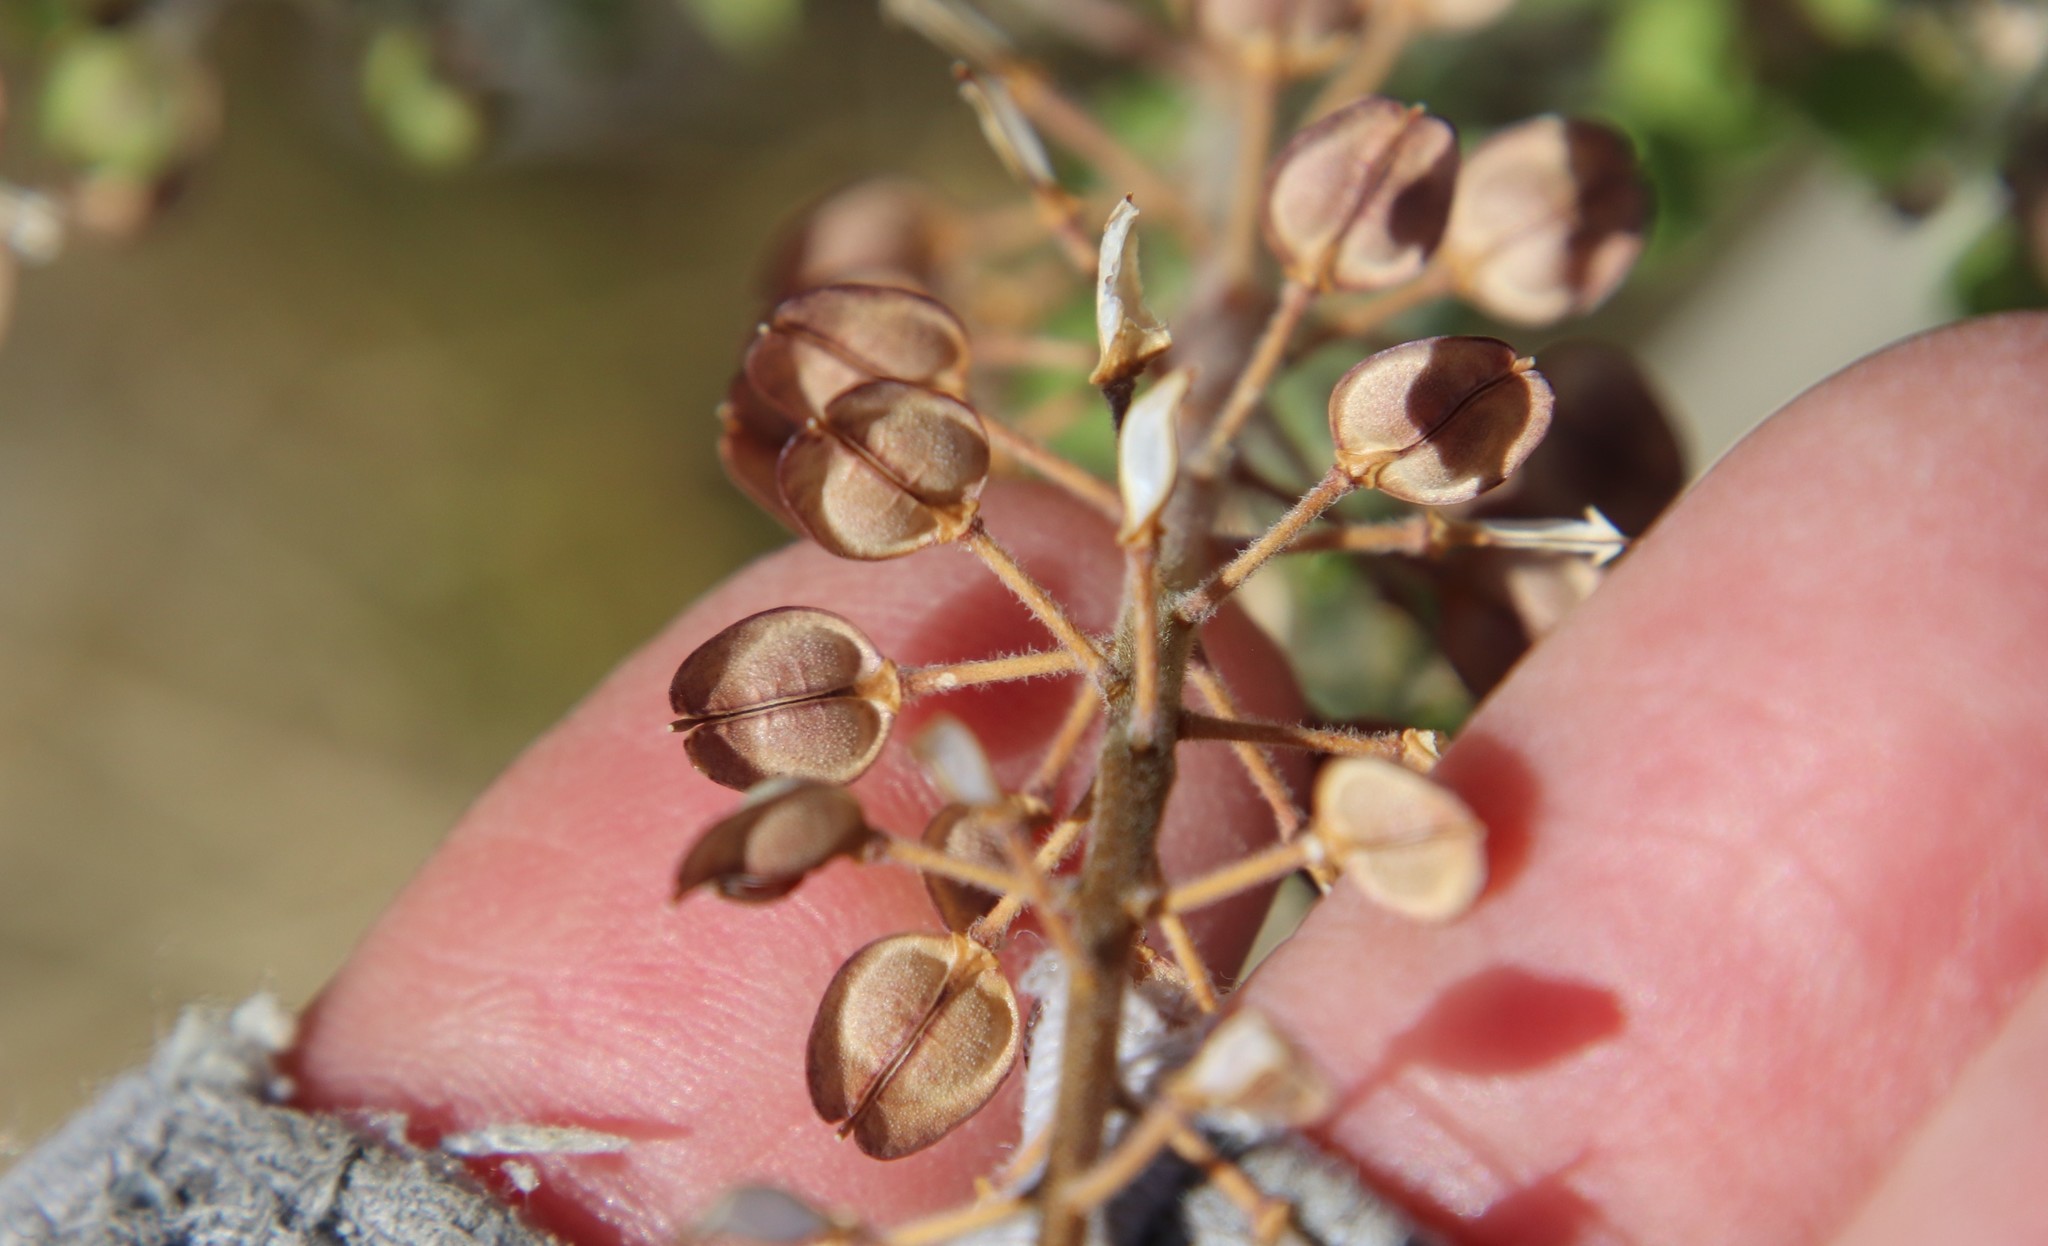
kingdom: Plantae
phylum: Tracheophyta
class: Magnoliopsida
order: Brassicales
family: Brassicaceae
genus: Lepidium
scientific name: Lepidium campestre
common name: Field pepperwort
